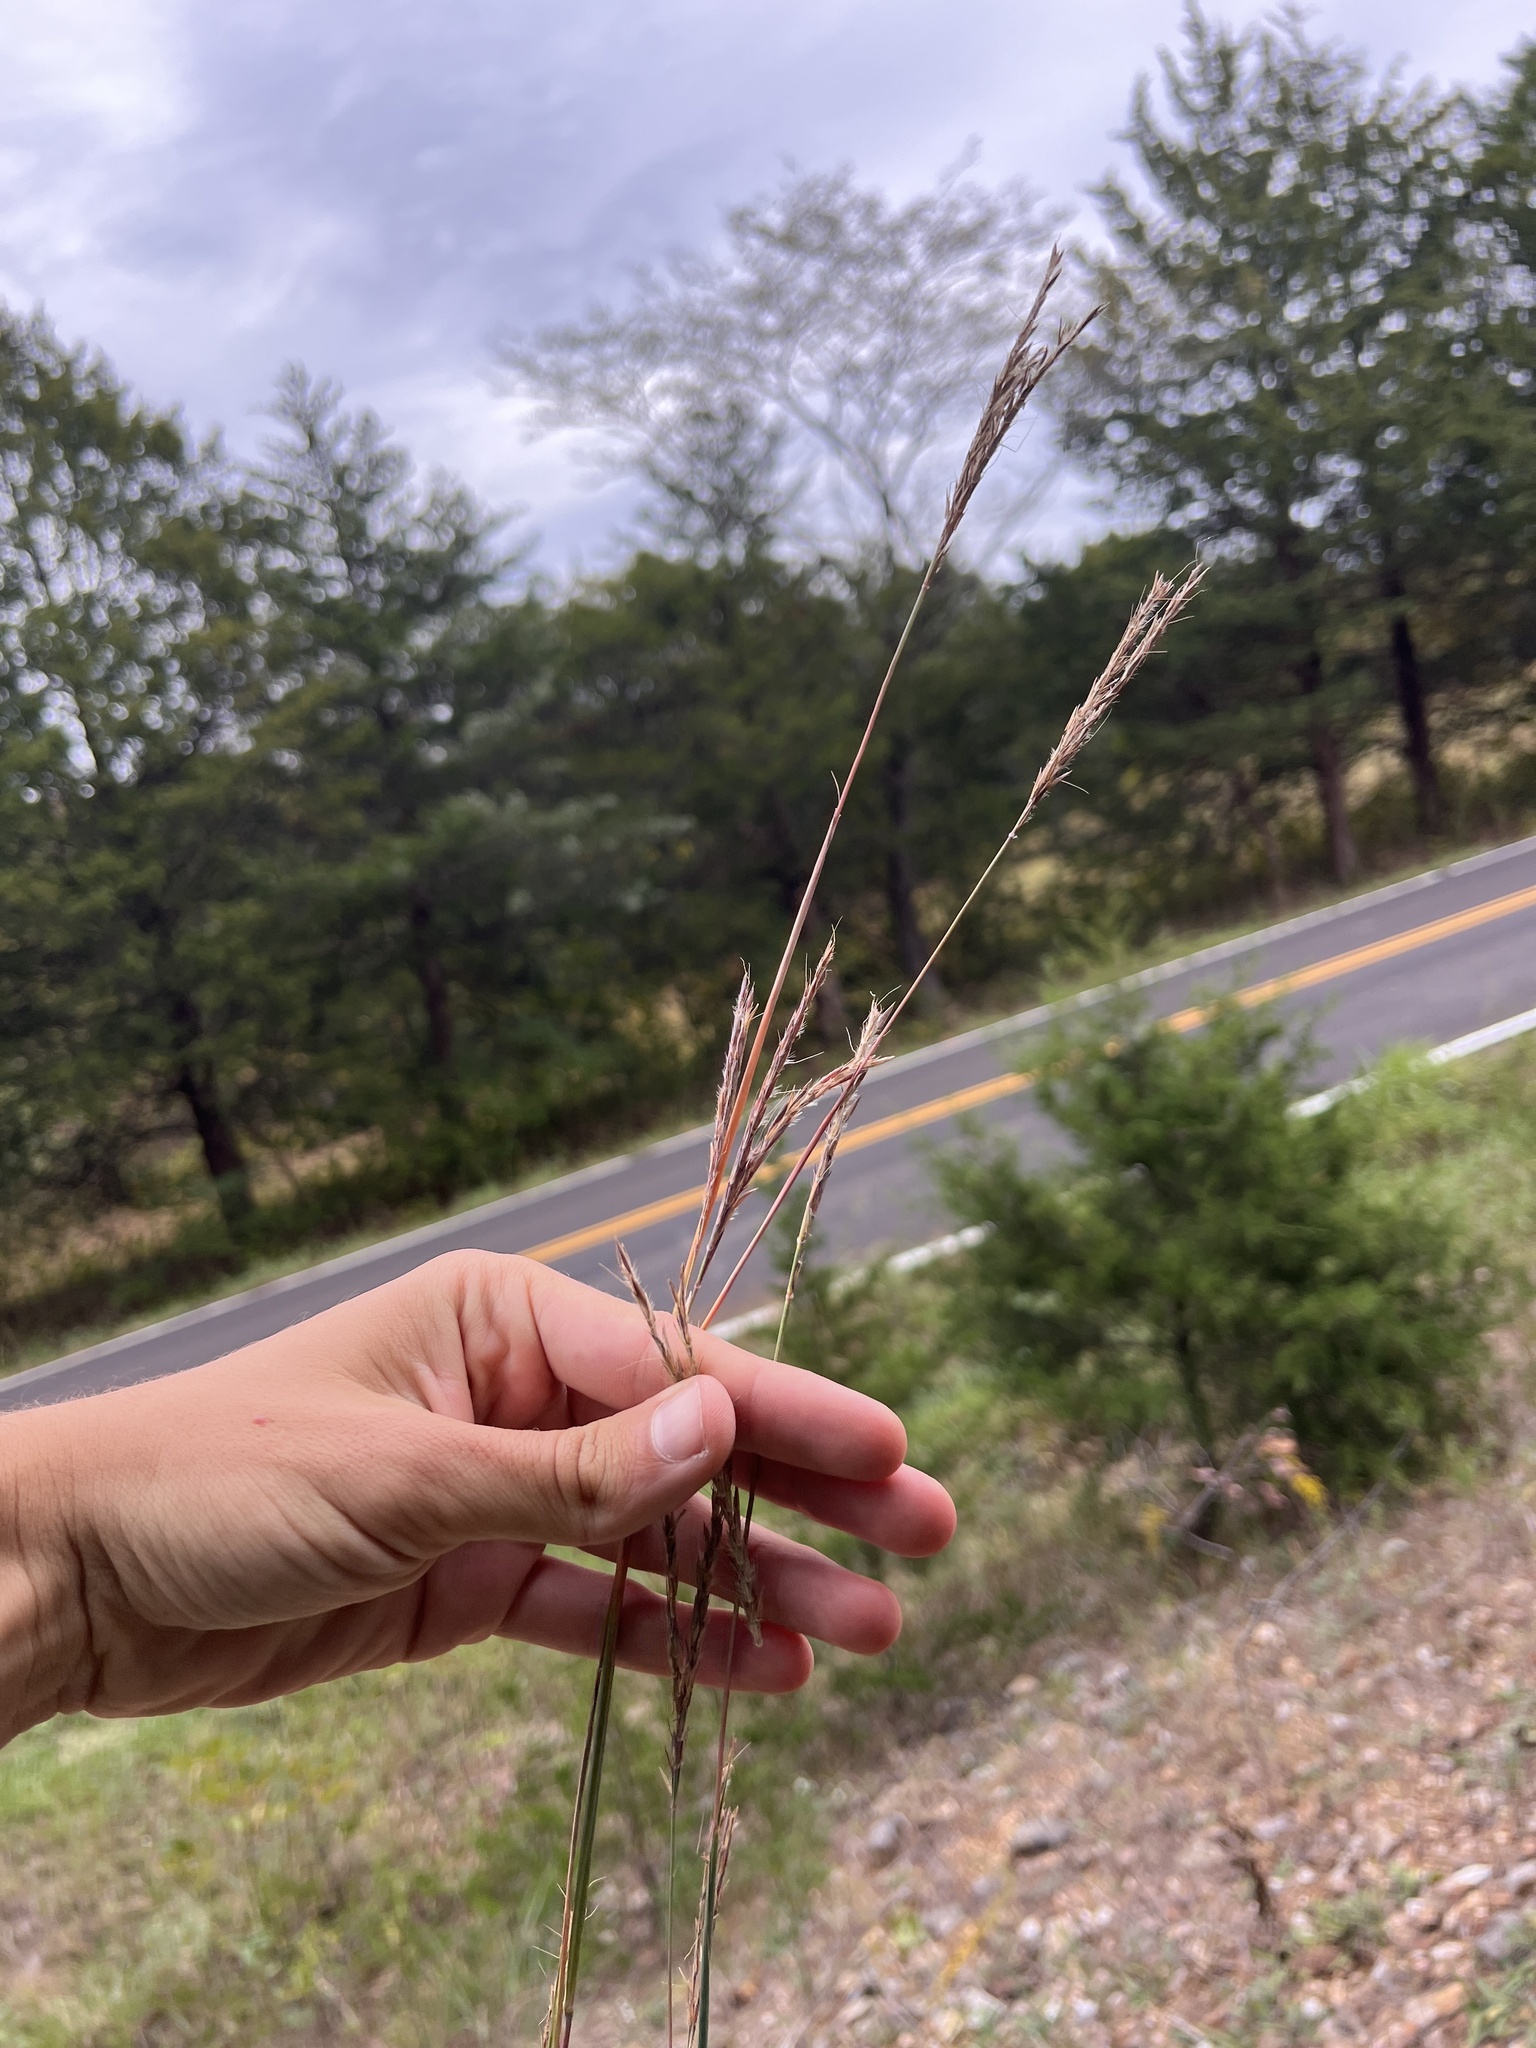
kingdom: Plantae
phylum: Tracheophyta
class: Liliopsida
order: Poales
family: Poaceae
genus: Andropogon
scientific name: Andropogon gerardi
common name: Big bluestem
